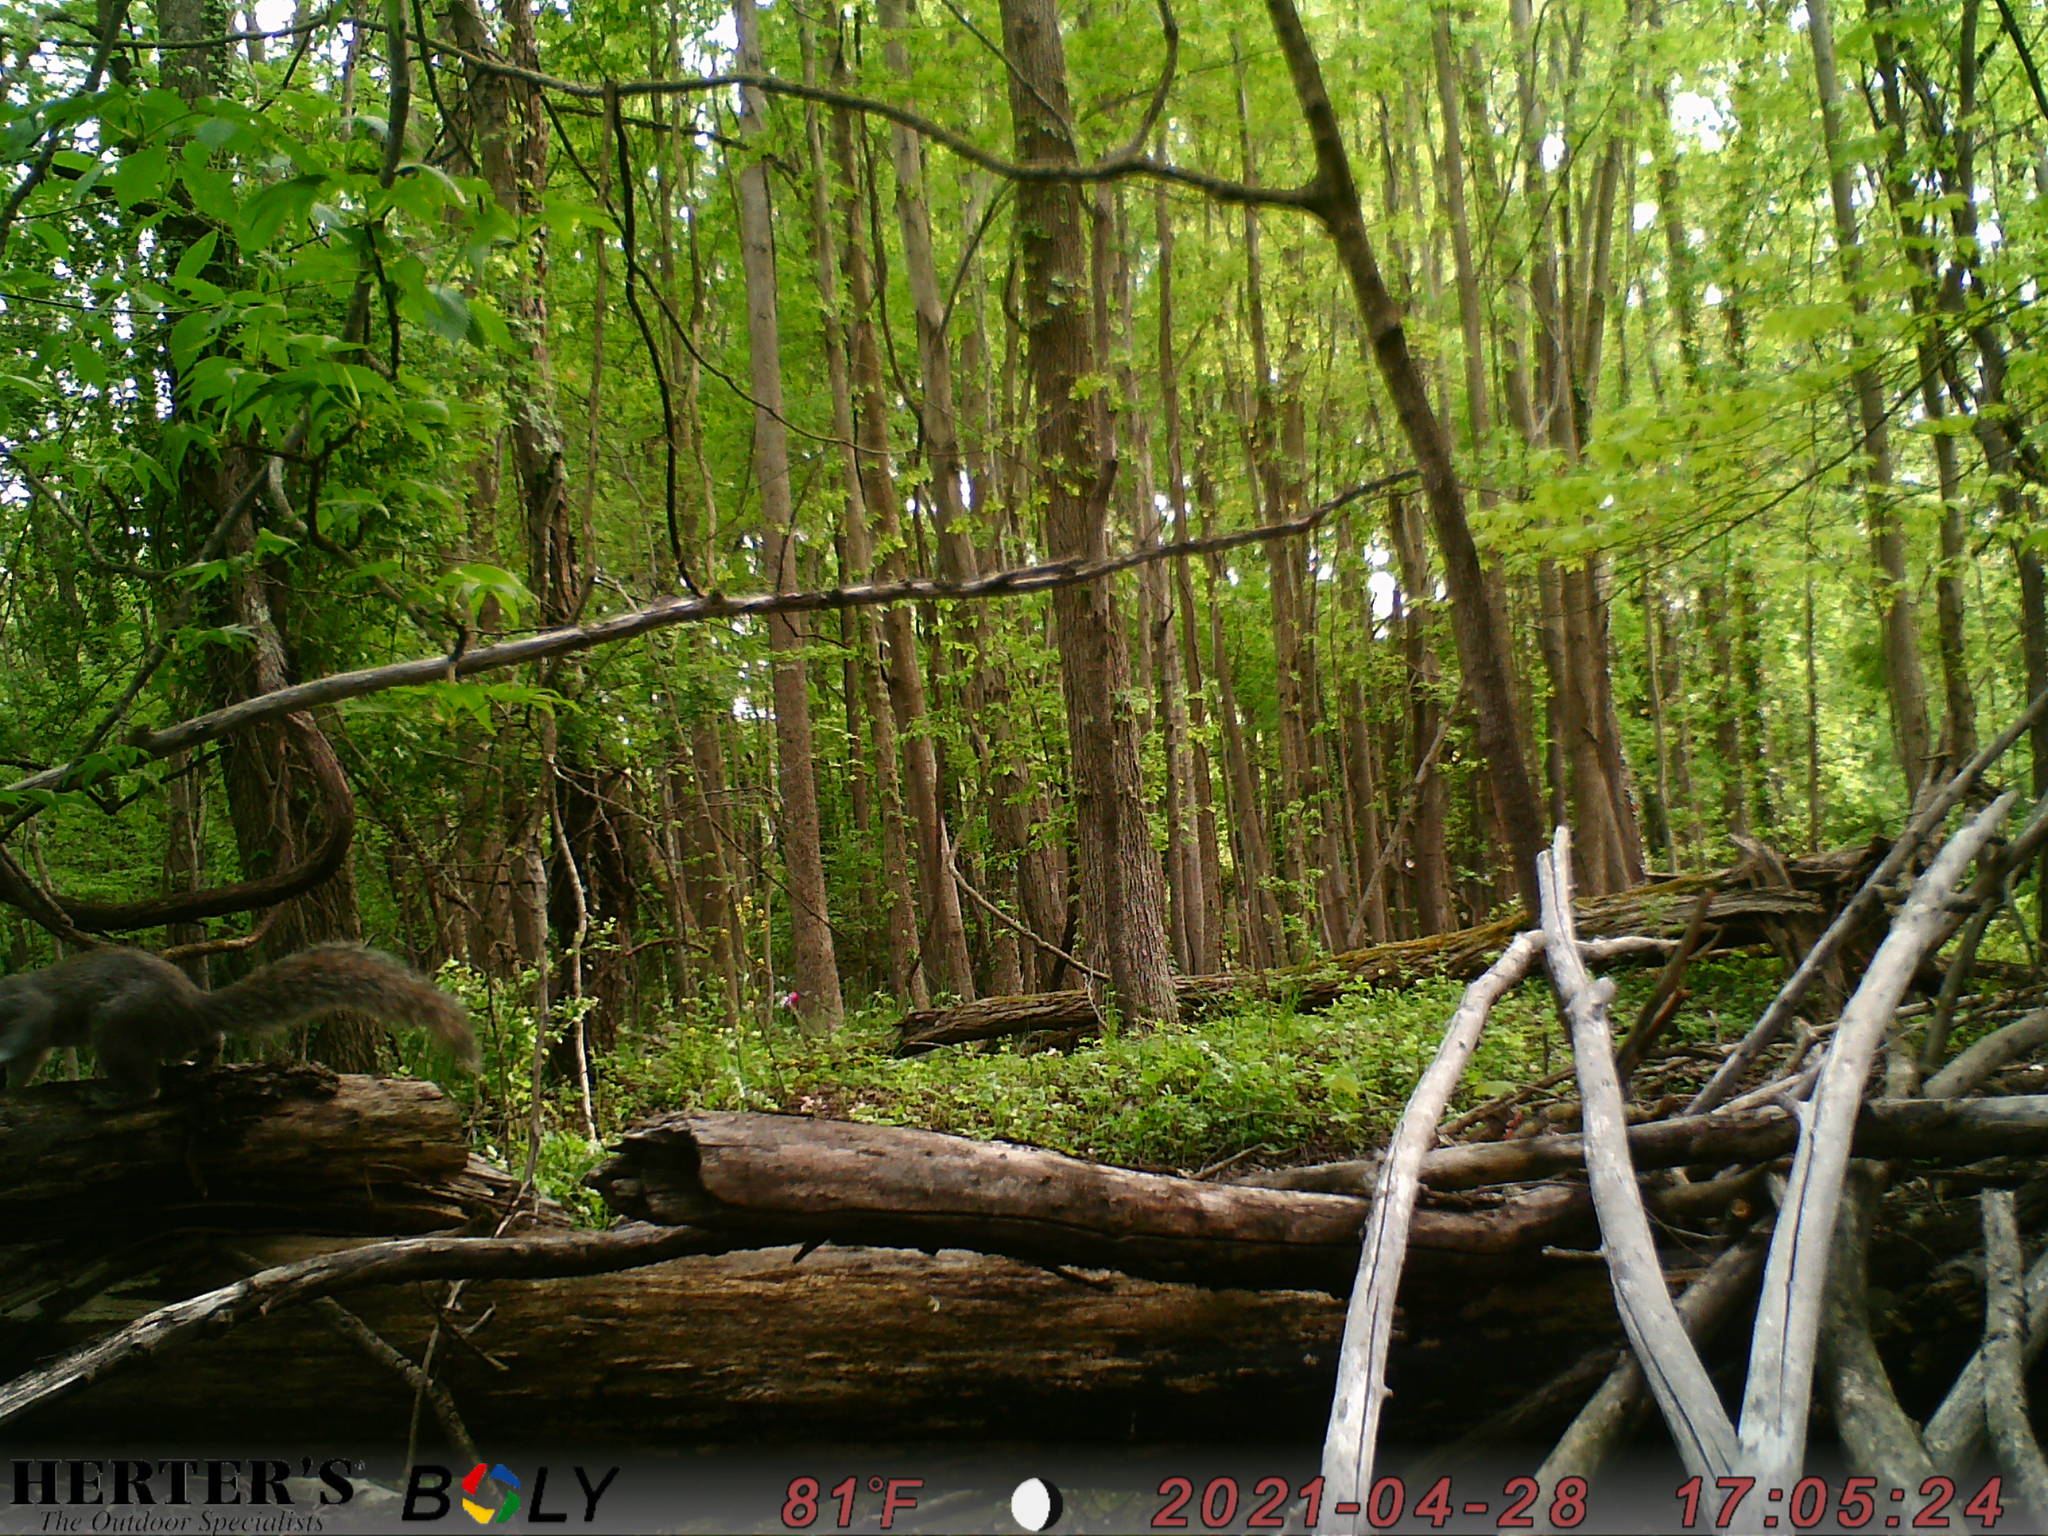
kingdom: Animalia
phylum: Chordata
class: Mammalia
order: Rodentia
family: Sciuridae
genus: Sciurus
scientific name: Sciurus carolinensis
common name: Eastern gray squirrel
